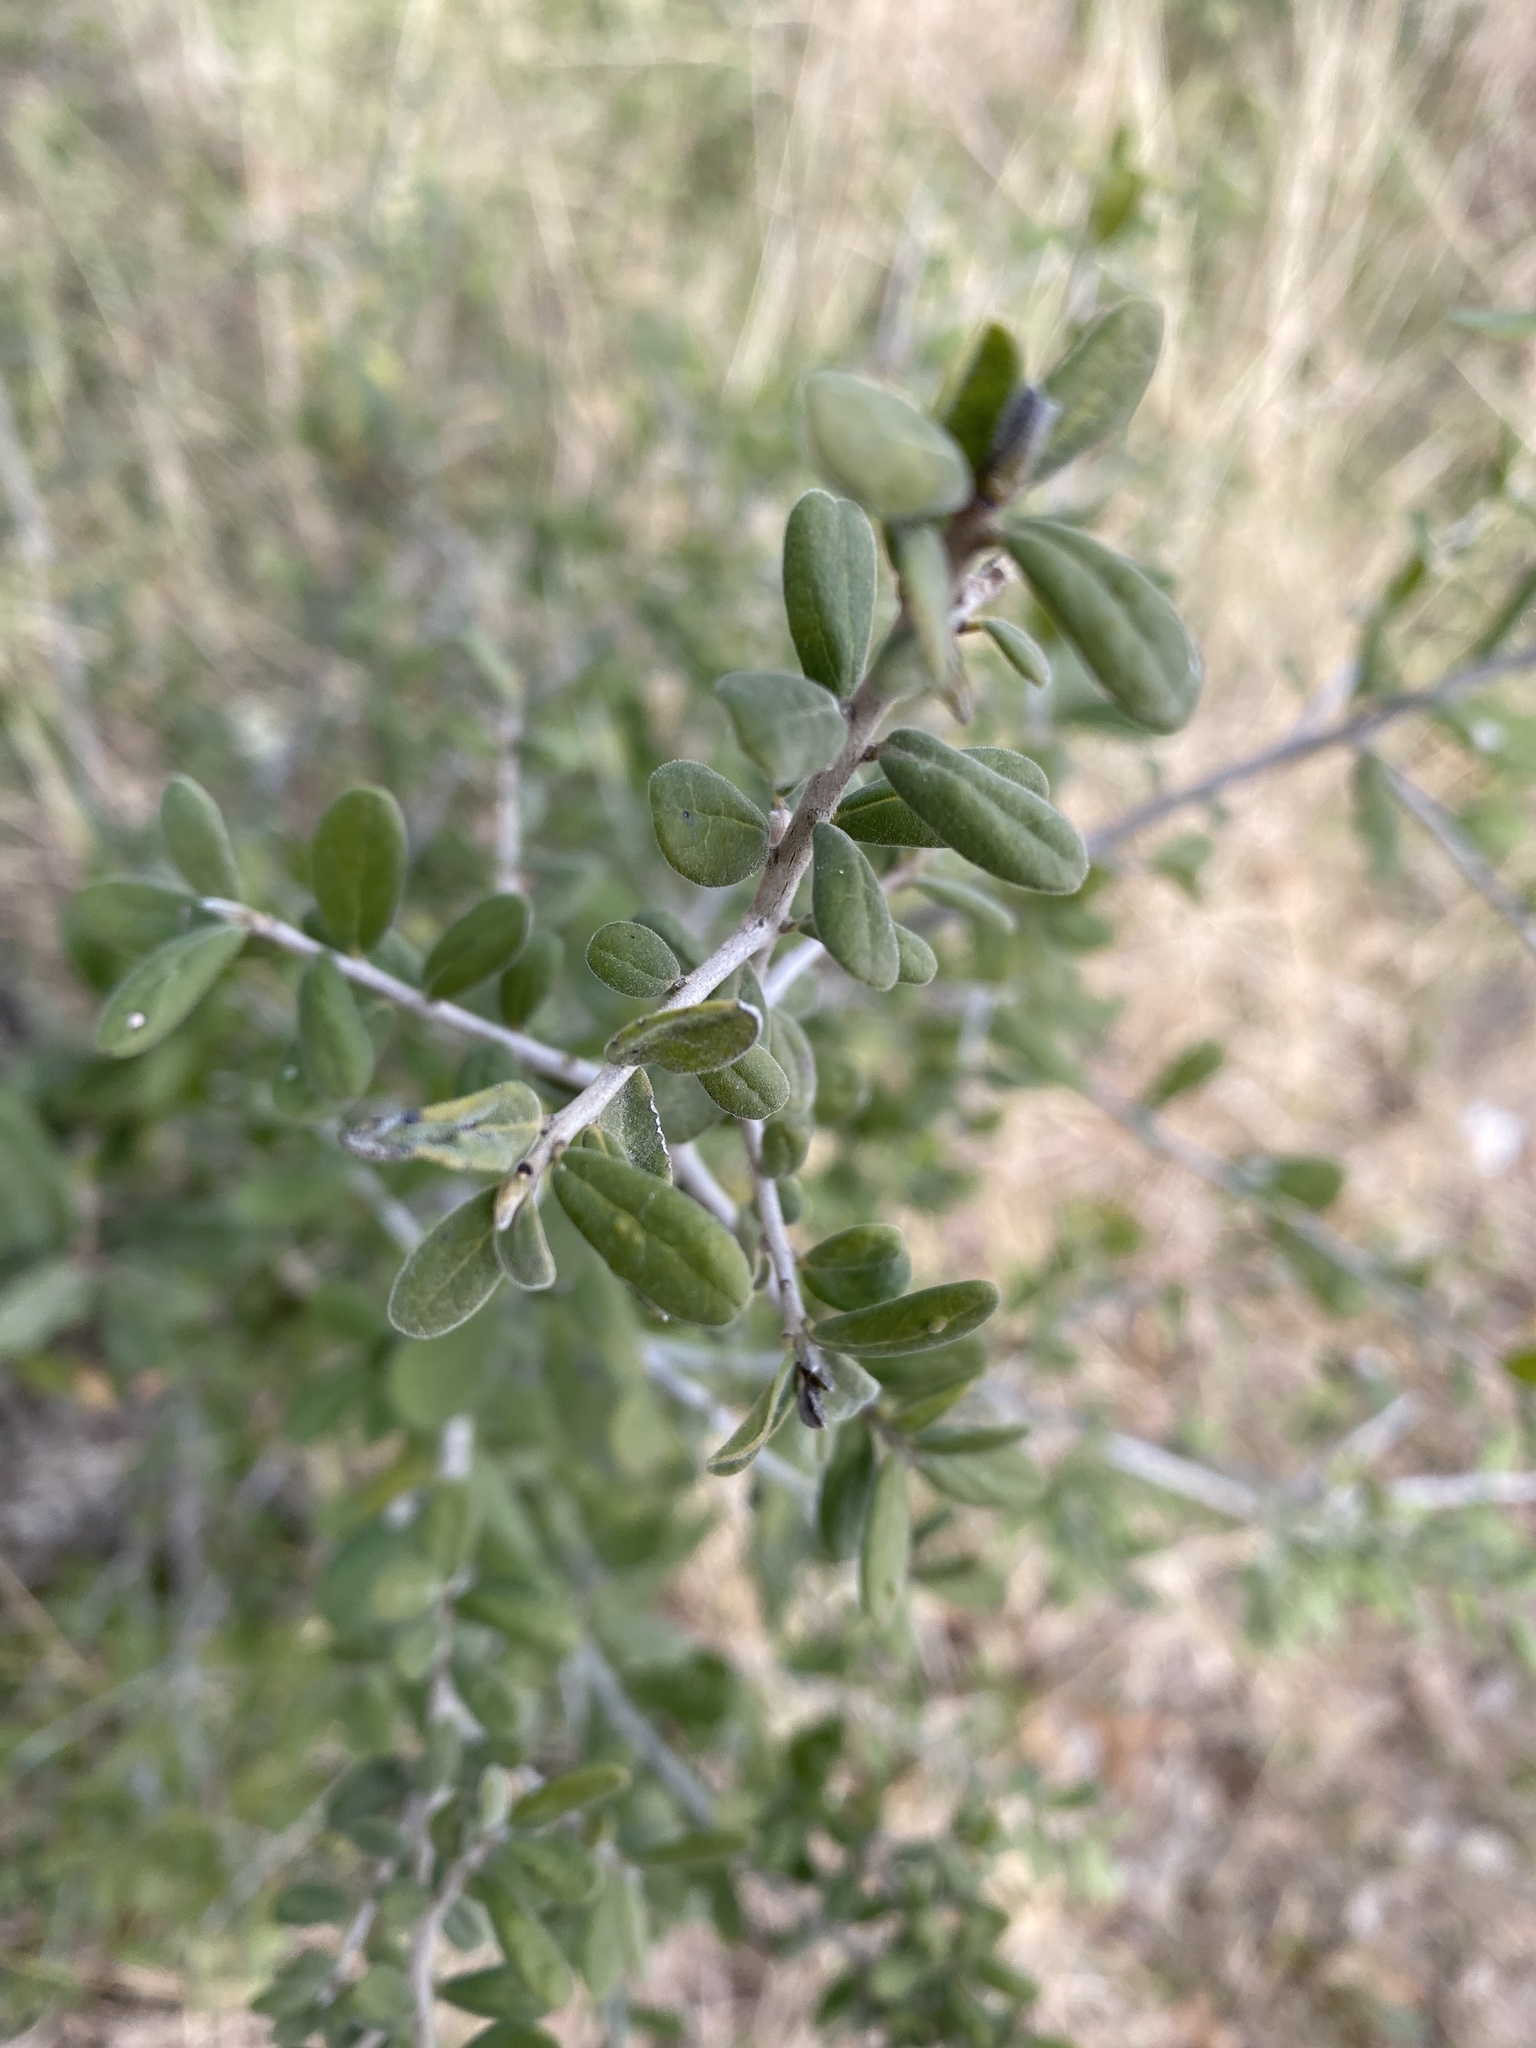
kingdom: Plantae
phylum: Tracheophyta
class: Magnoliopsida
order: Ericales
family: Ebenaceae
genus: Diospyros
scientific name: Diospyros texana
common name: Texas persimmon
